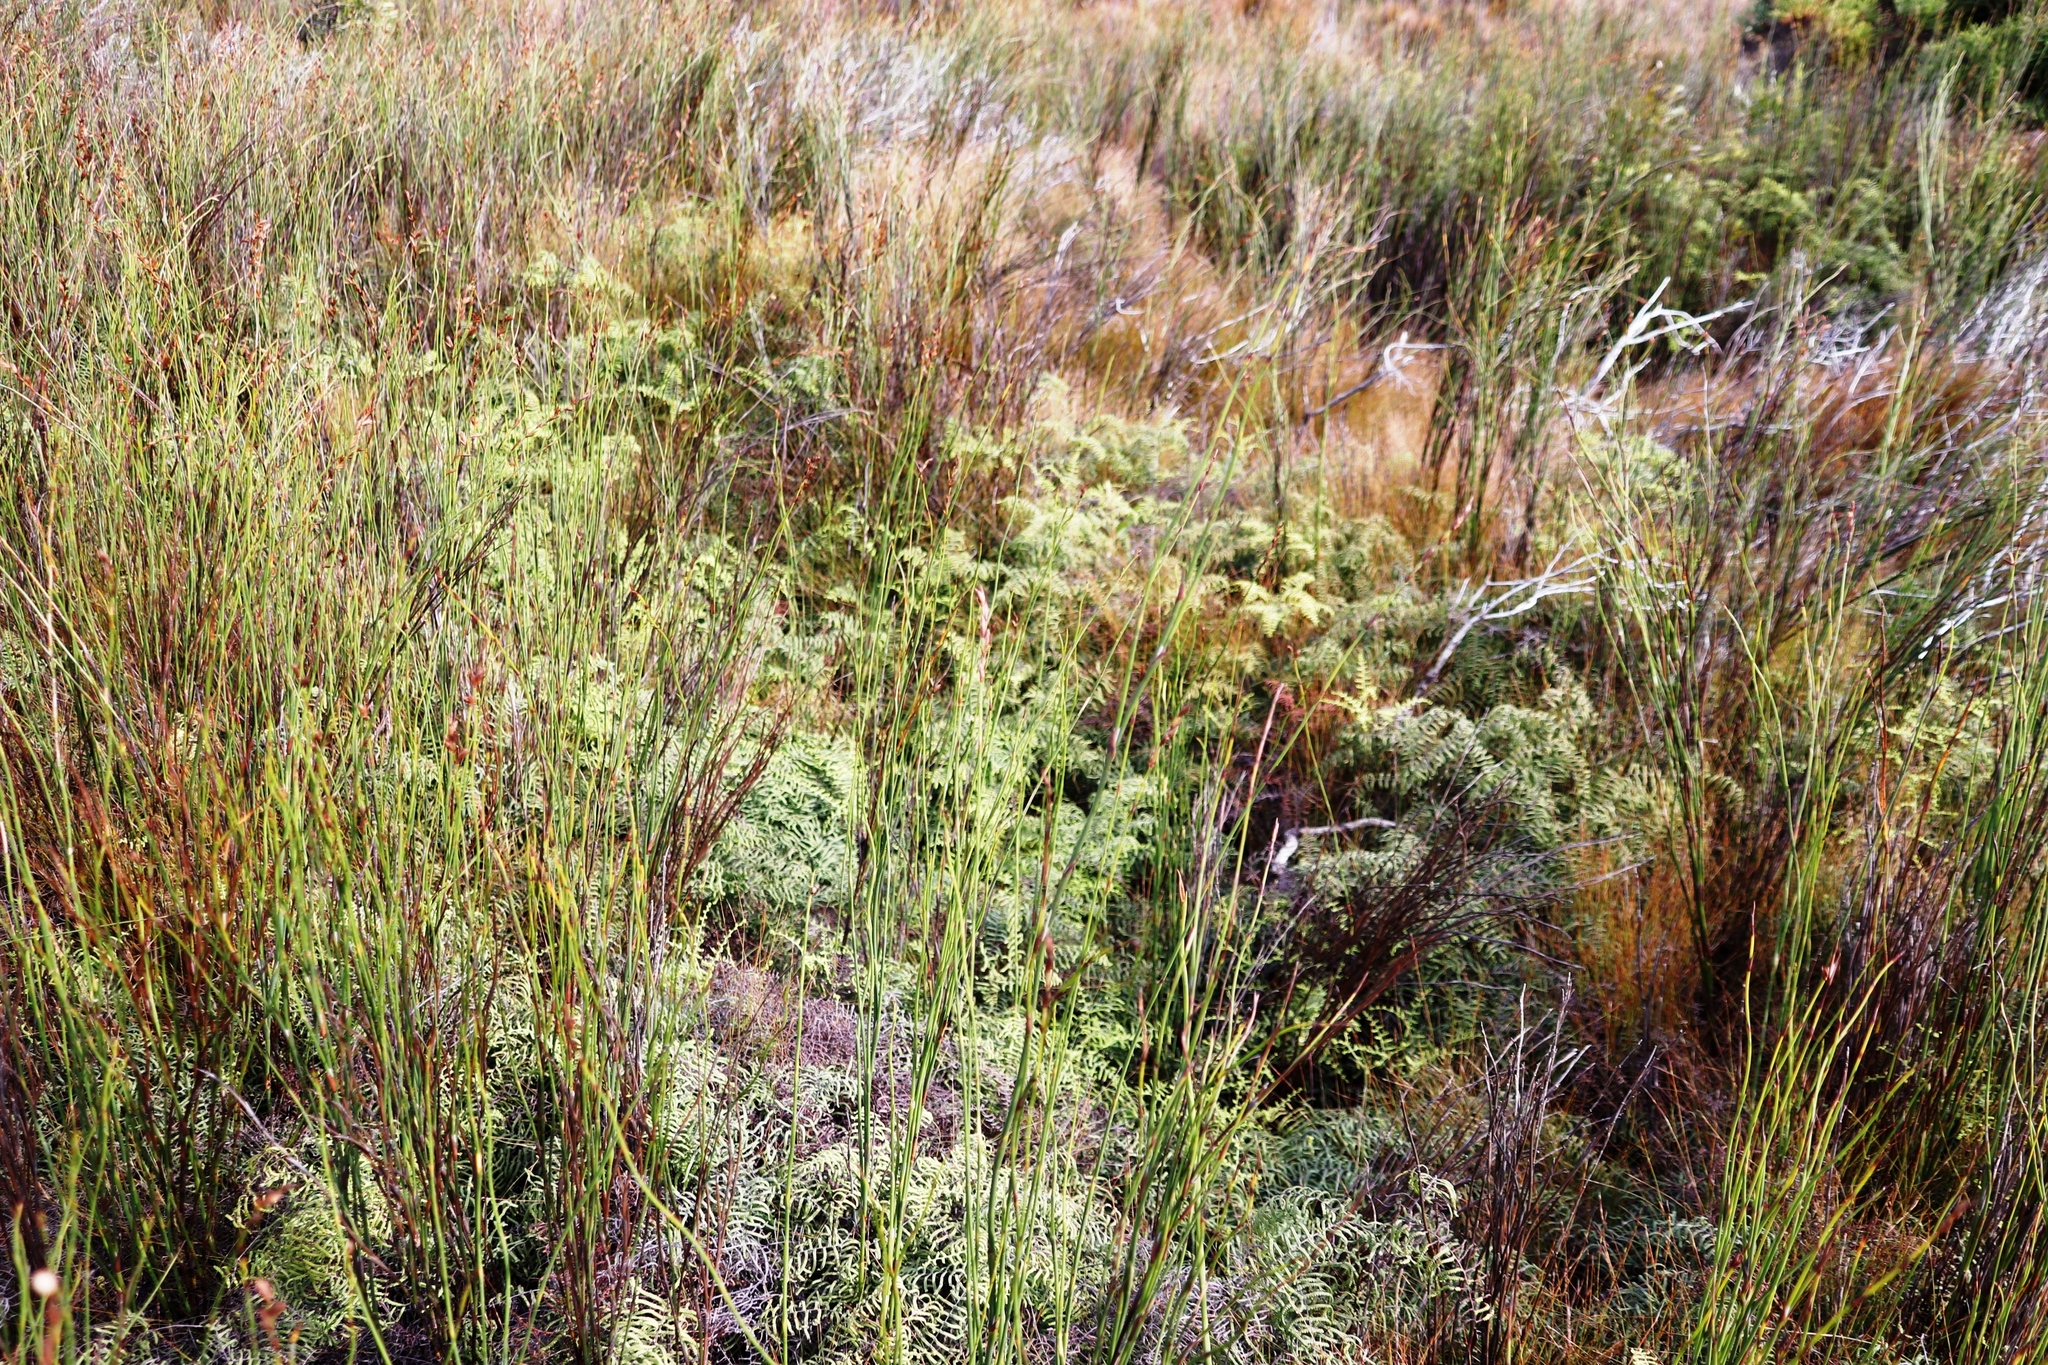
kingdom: Plantae
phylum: Tracheophyta
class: Polypodiopsida
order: Gleicheniales
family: Gleicheniaceae
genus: Gleichenia
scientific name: Gleichenia polypodioides
